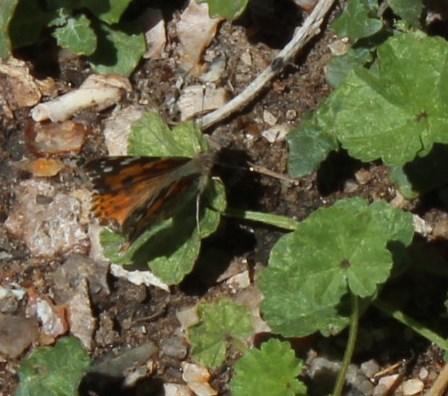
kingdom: Animalia
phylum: Arthropoda
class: Insecta
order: Lepidoptera
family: Nymphalidae
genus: Vanessa
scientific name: Vanessa cardui
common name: Painted lady
